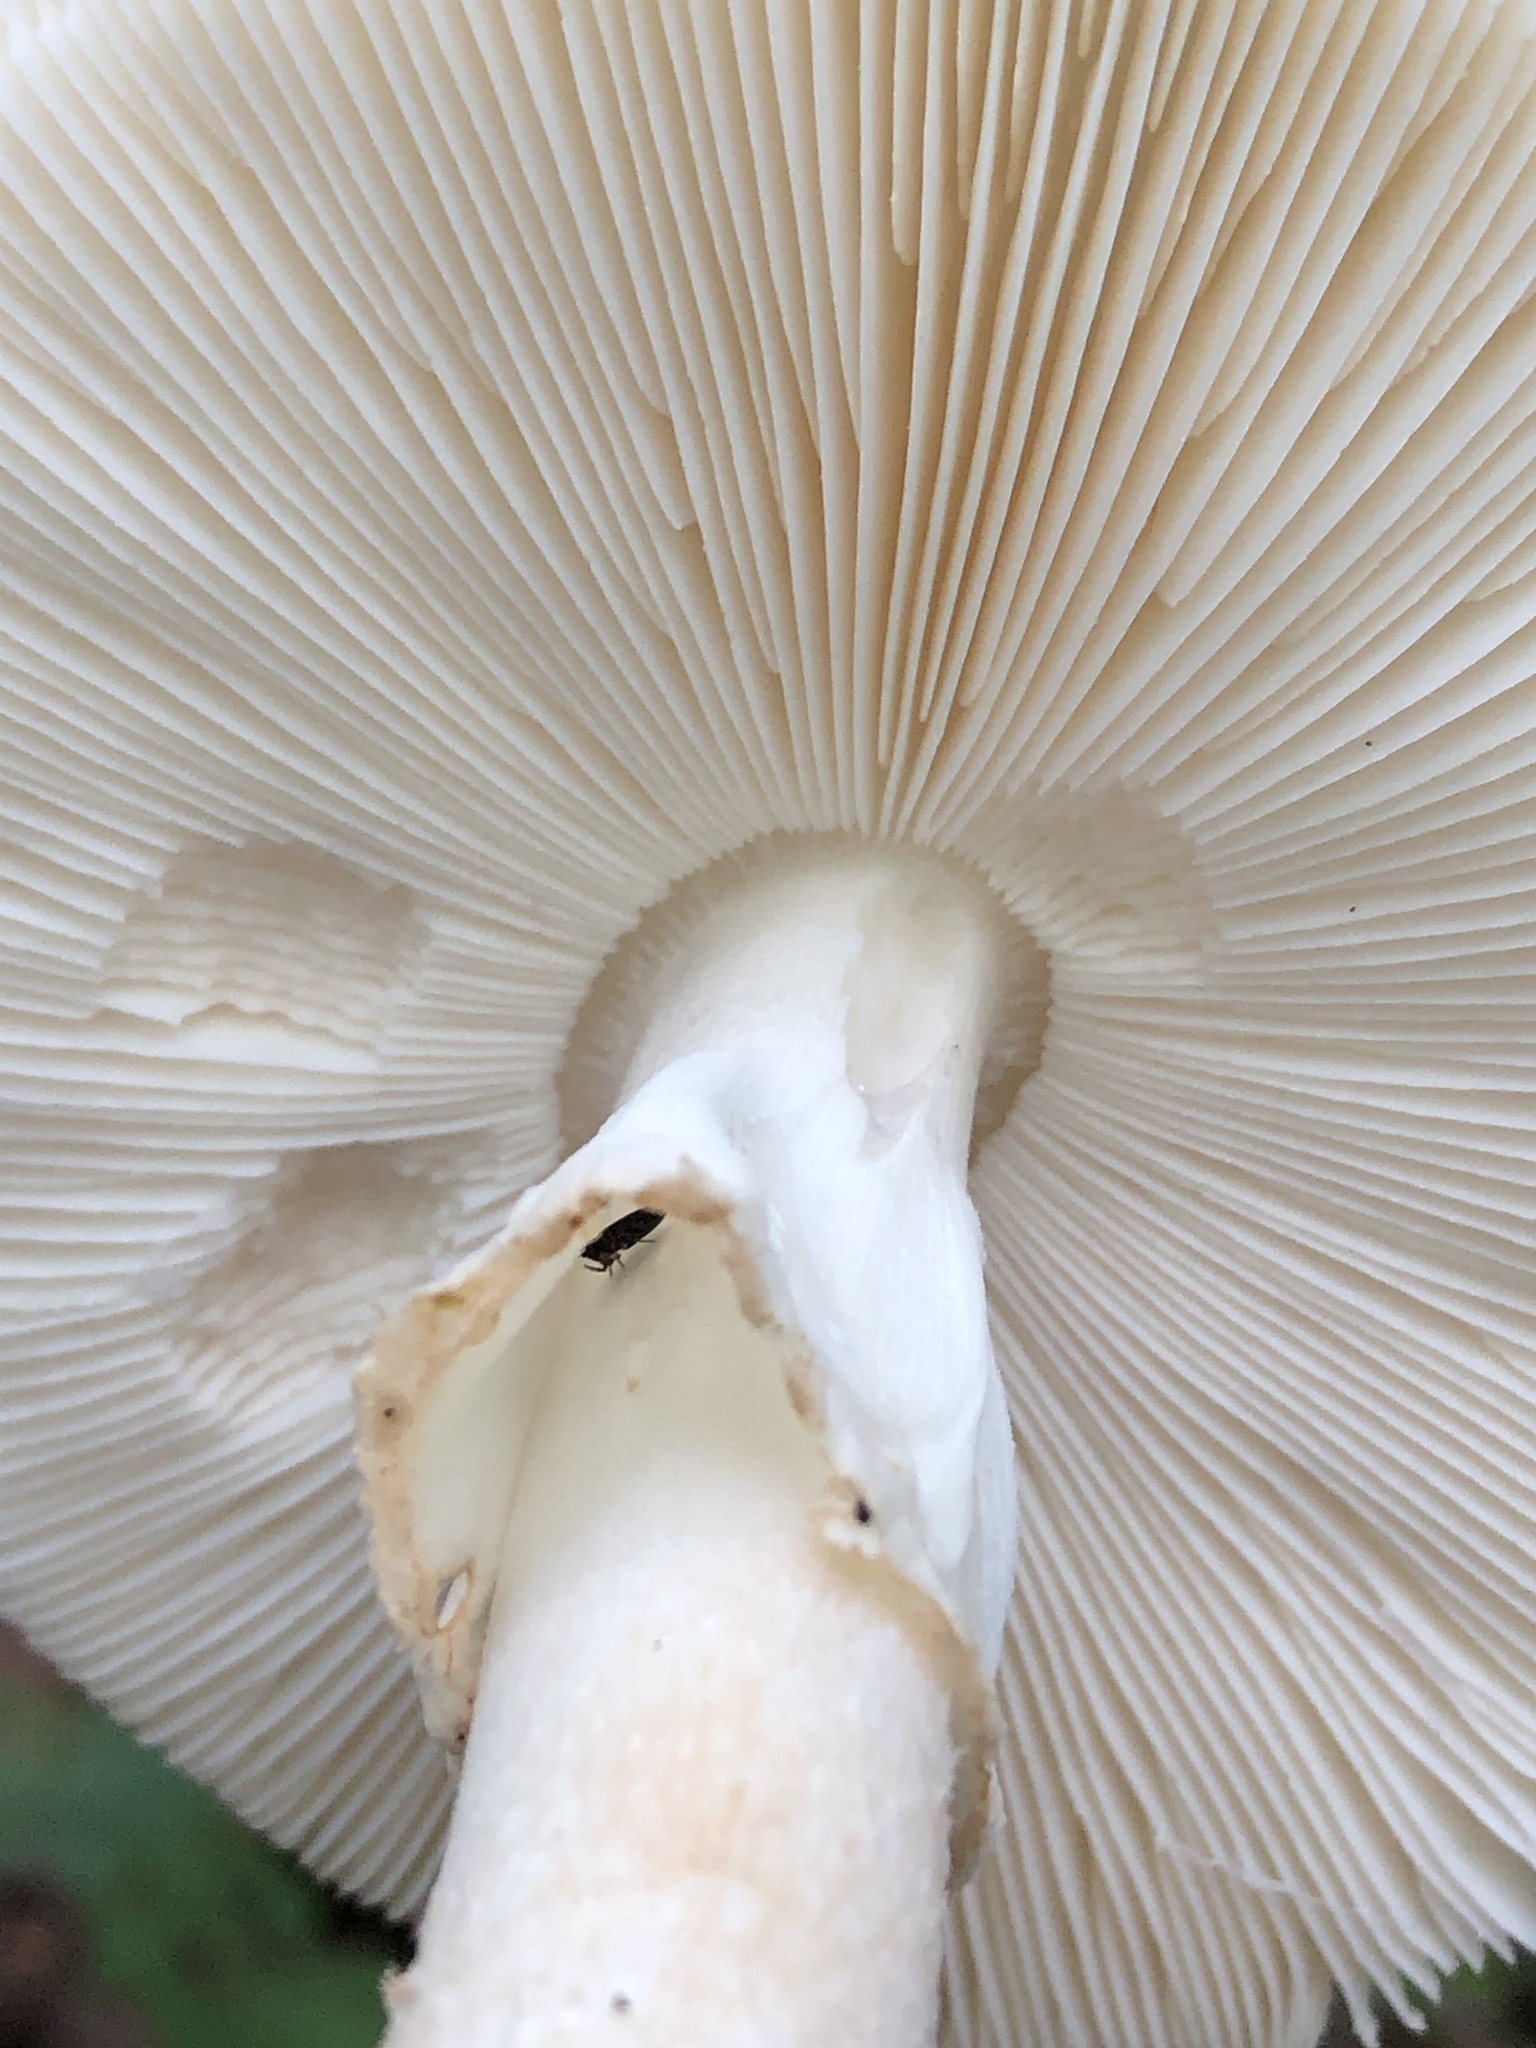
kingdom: Fungi
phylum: Basidiomycota
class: Agaricomycetes
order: Agaricales
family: Amanitaceae
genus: Amanita
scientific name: Amanita brunnescens
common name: Brown american star-footed amanita
